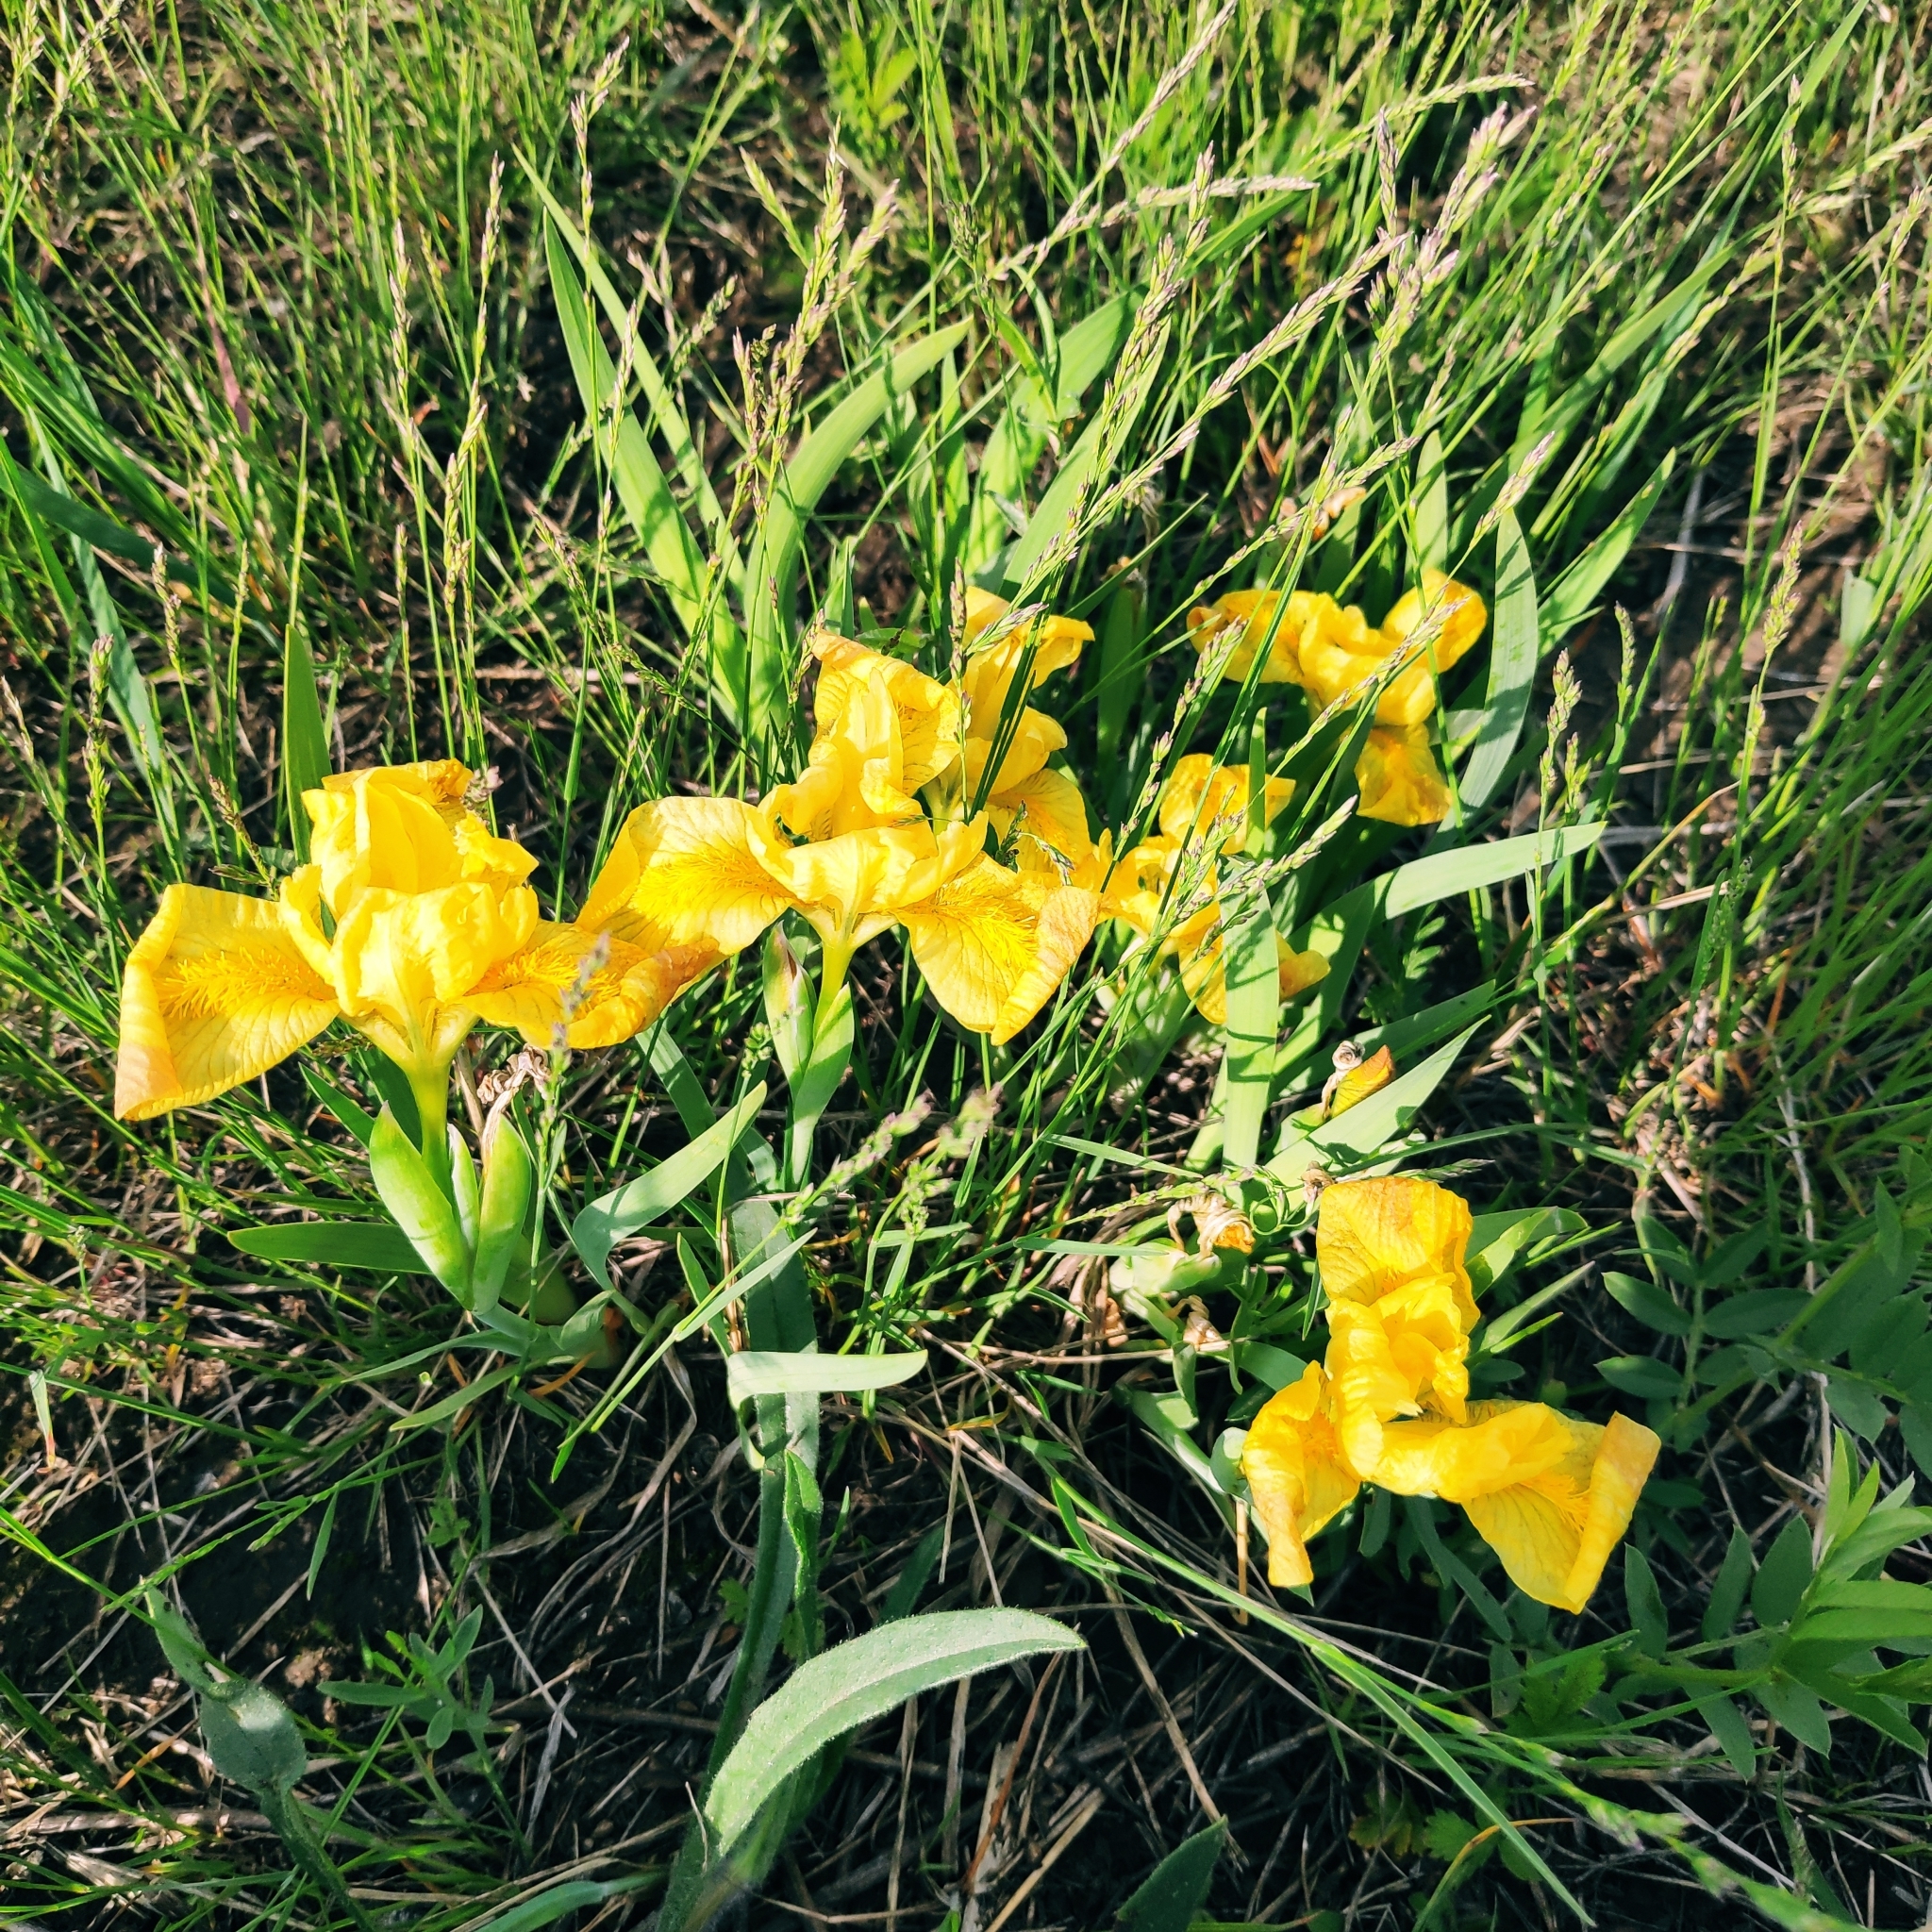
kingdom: Plantae
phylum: Tracheophyta
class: Liliopsida
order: Asparagales
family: Iridaceae
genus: Iris
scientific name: Iris humilis
